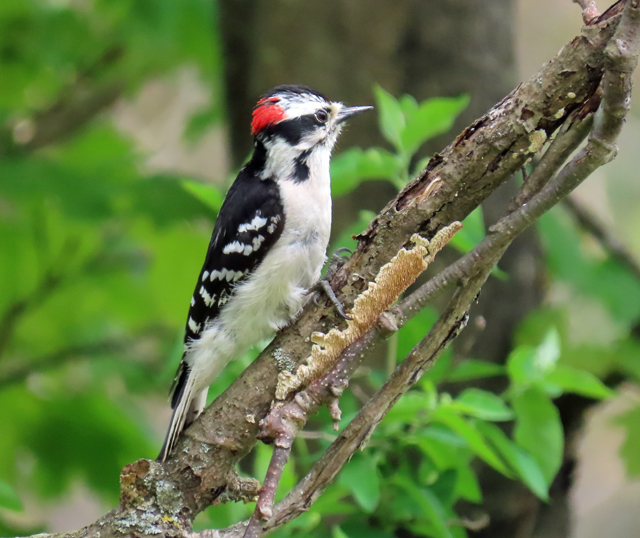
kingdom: Animalia
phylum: Chordata
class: Aves
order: Piciformes
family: Picidae
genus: Dryobates
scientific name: Dryobates pubescens
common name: Downy woodpecker
